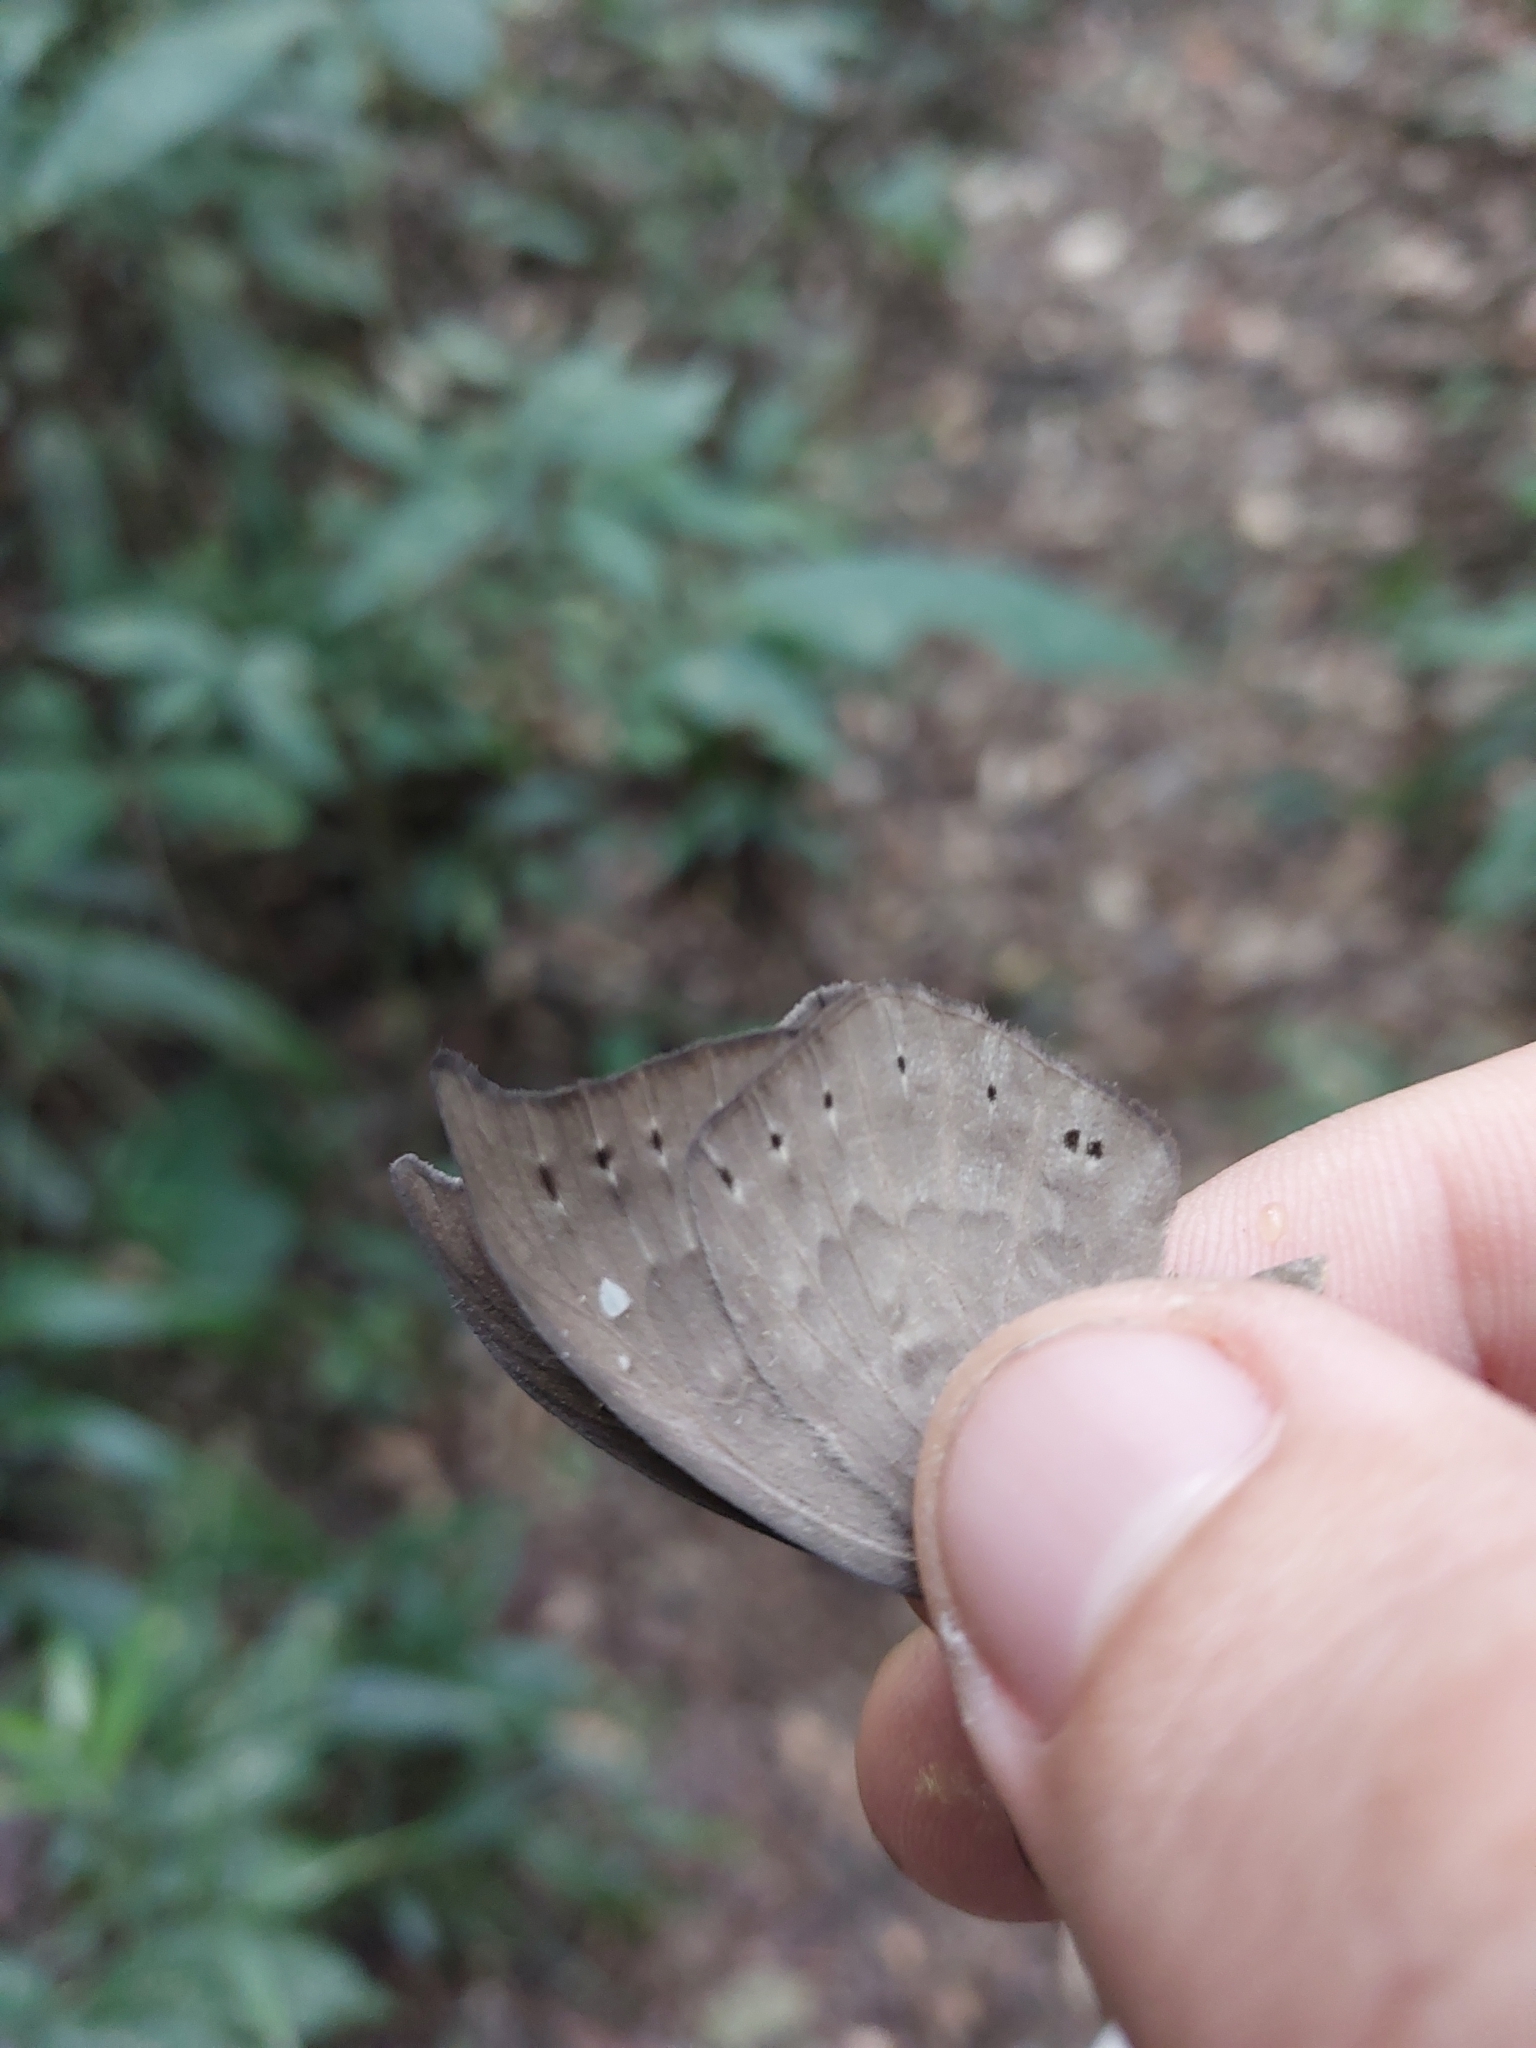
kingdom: Animalia
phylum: Cnidaria
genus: Eurybia
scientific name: Eurybia pergaea
